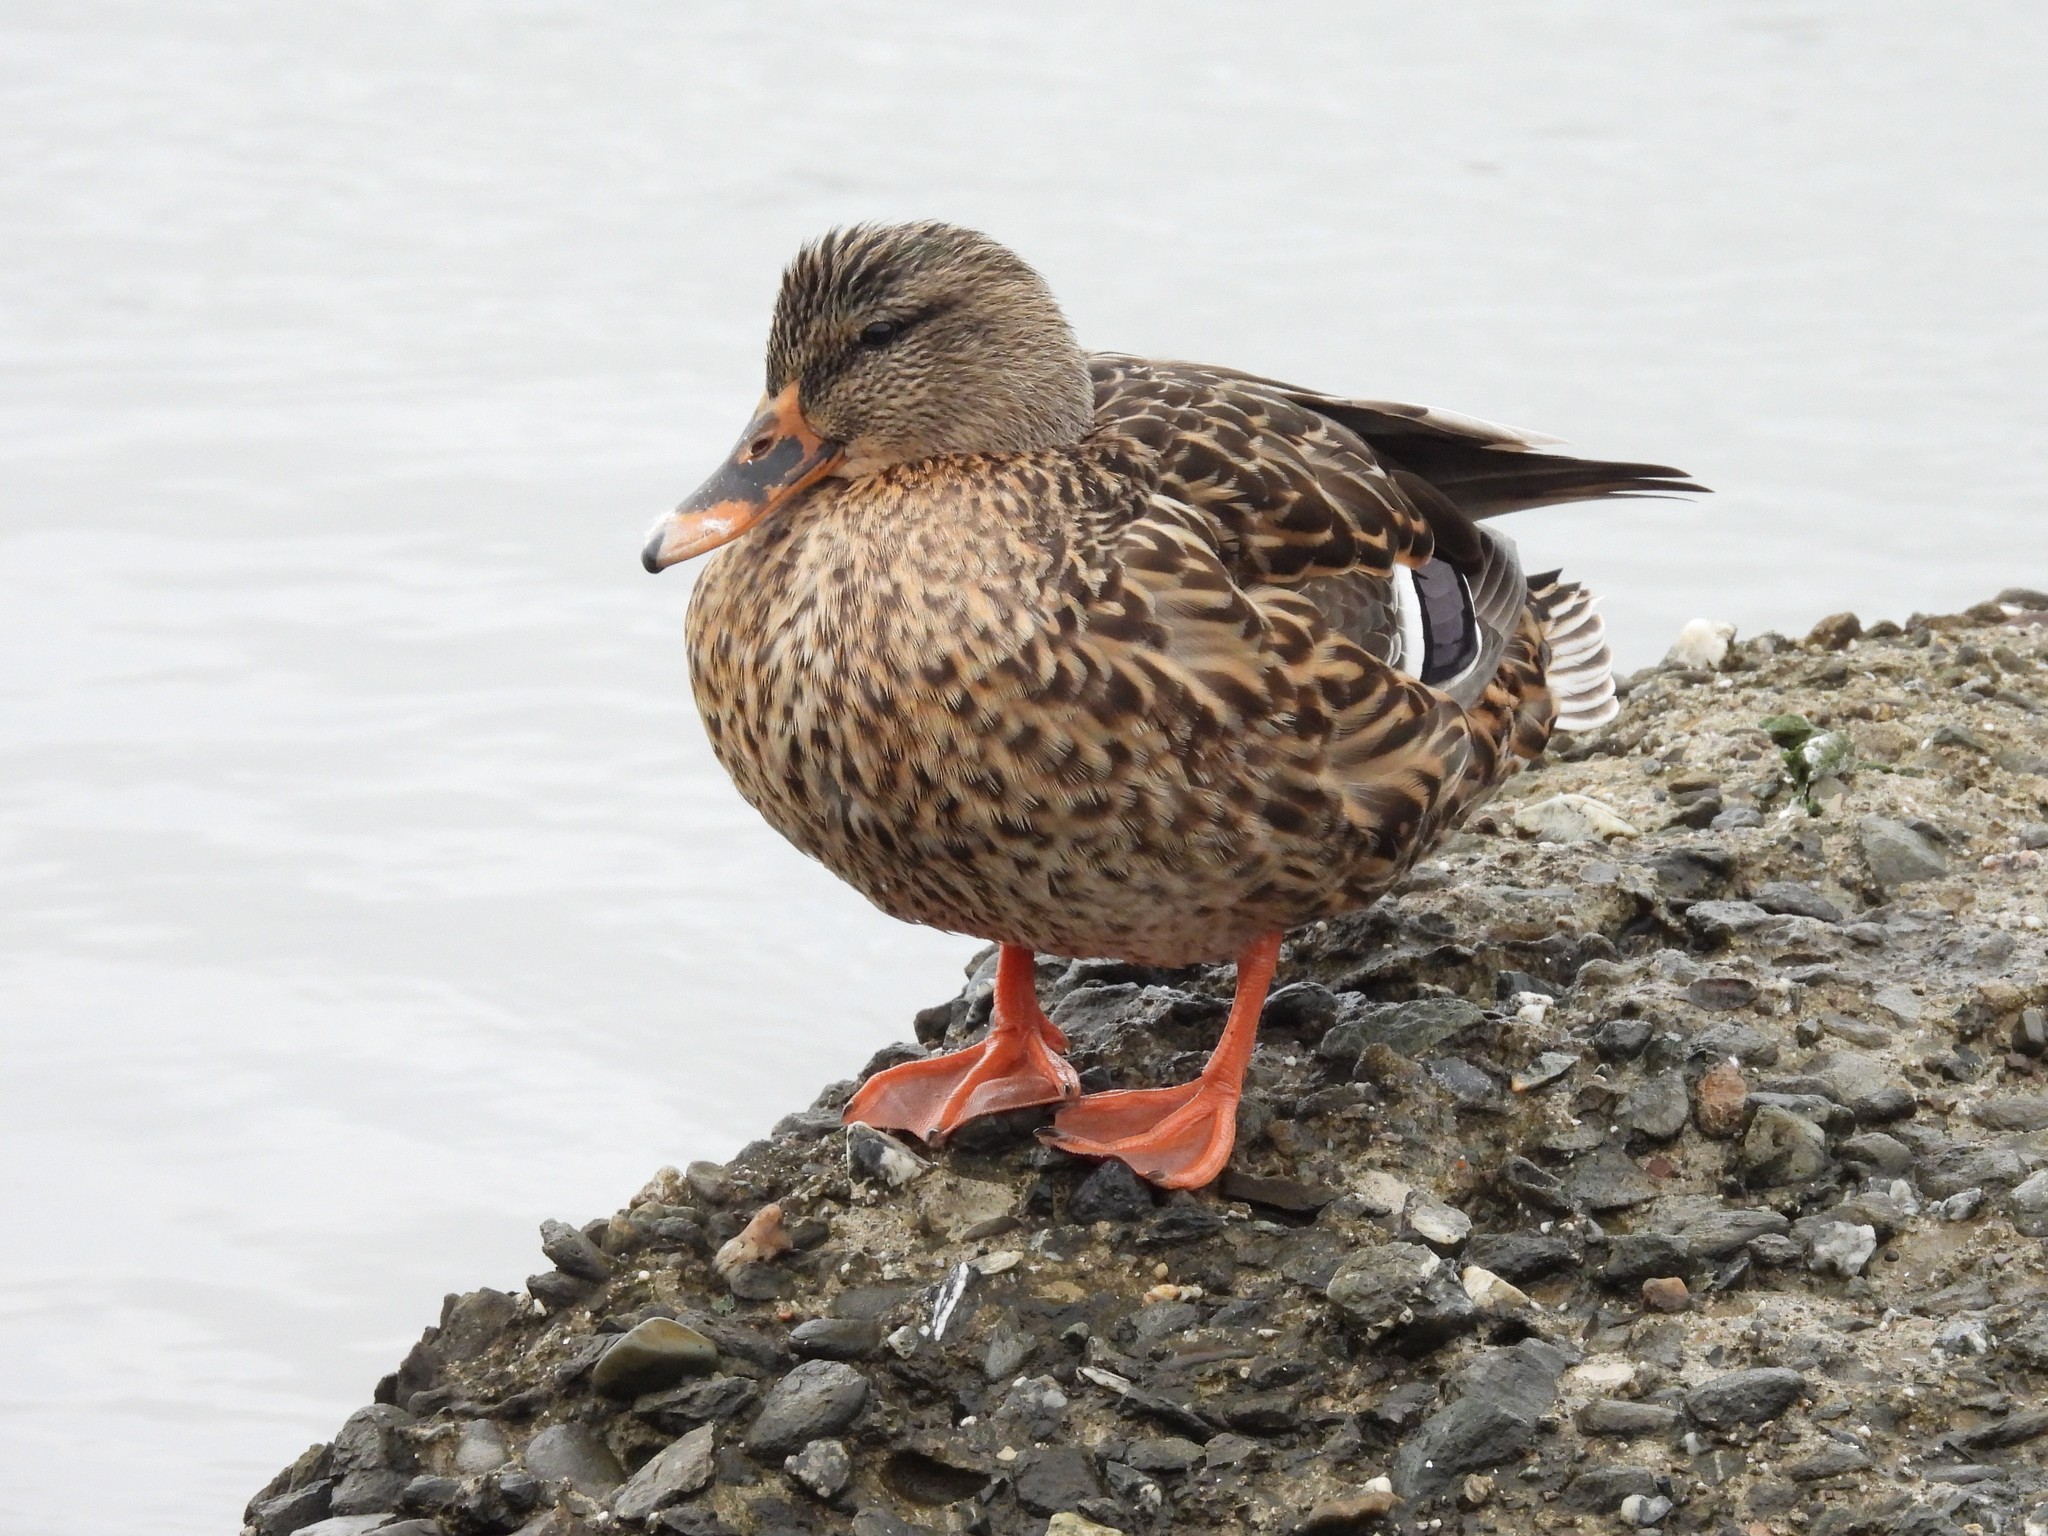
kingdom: Animalia
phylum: Chordata
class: Aves
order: Anseriformes
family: Anatidae
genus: Anas
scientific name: Anas platyrhynchos
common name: Mallard
